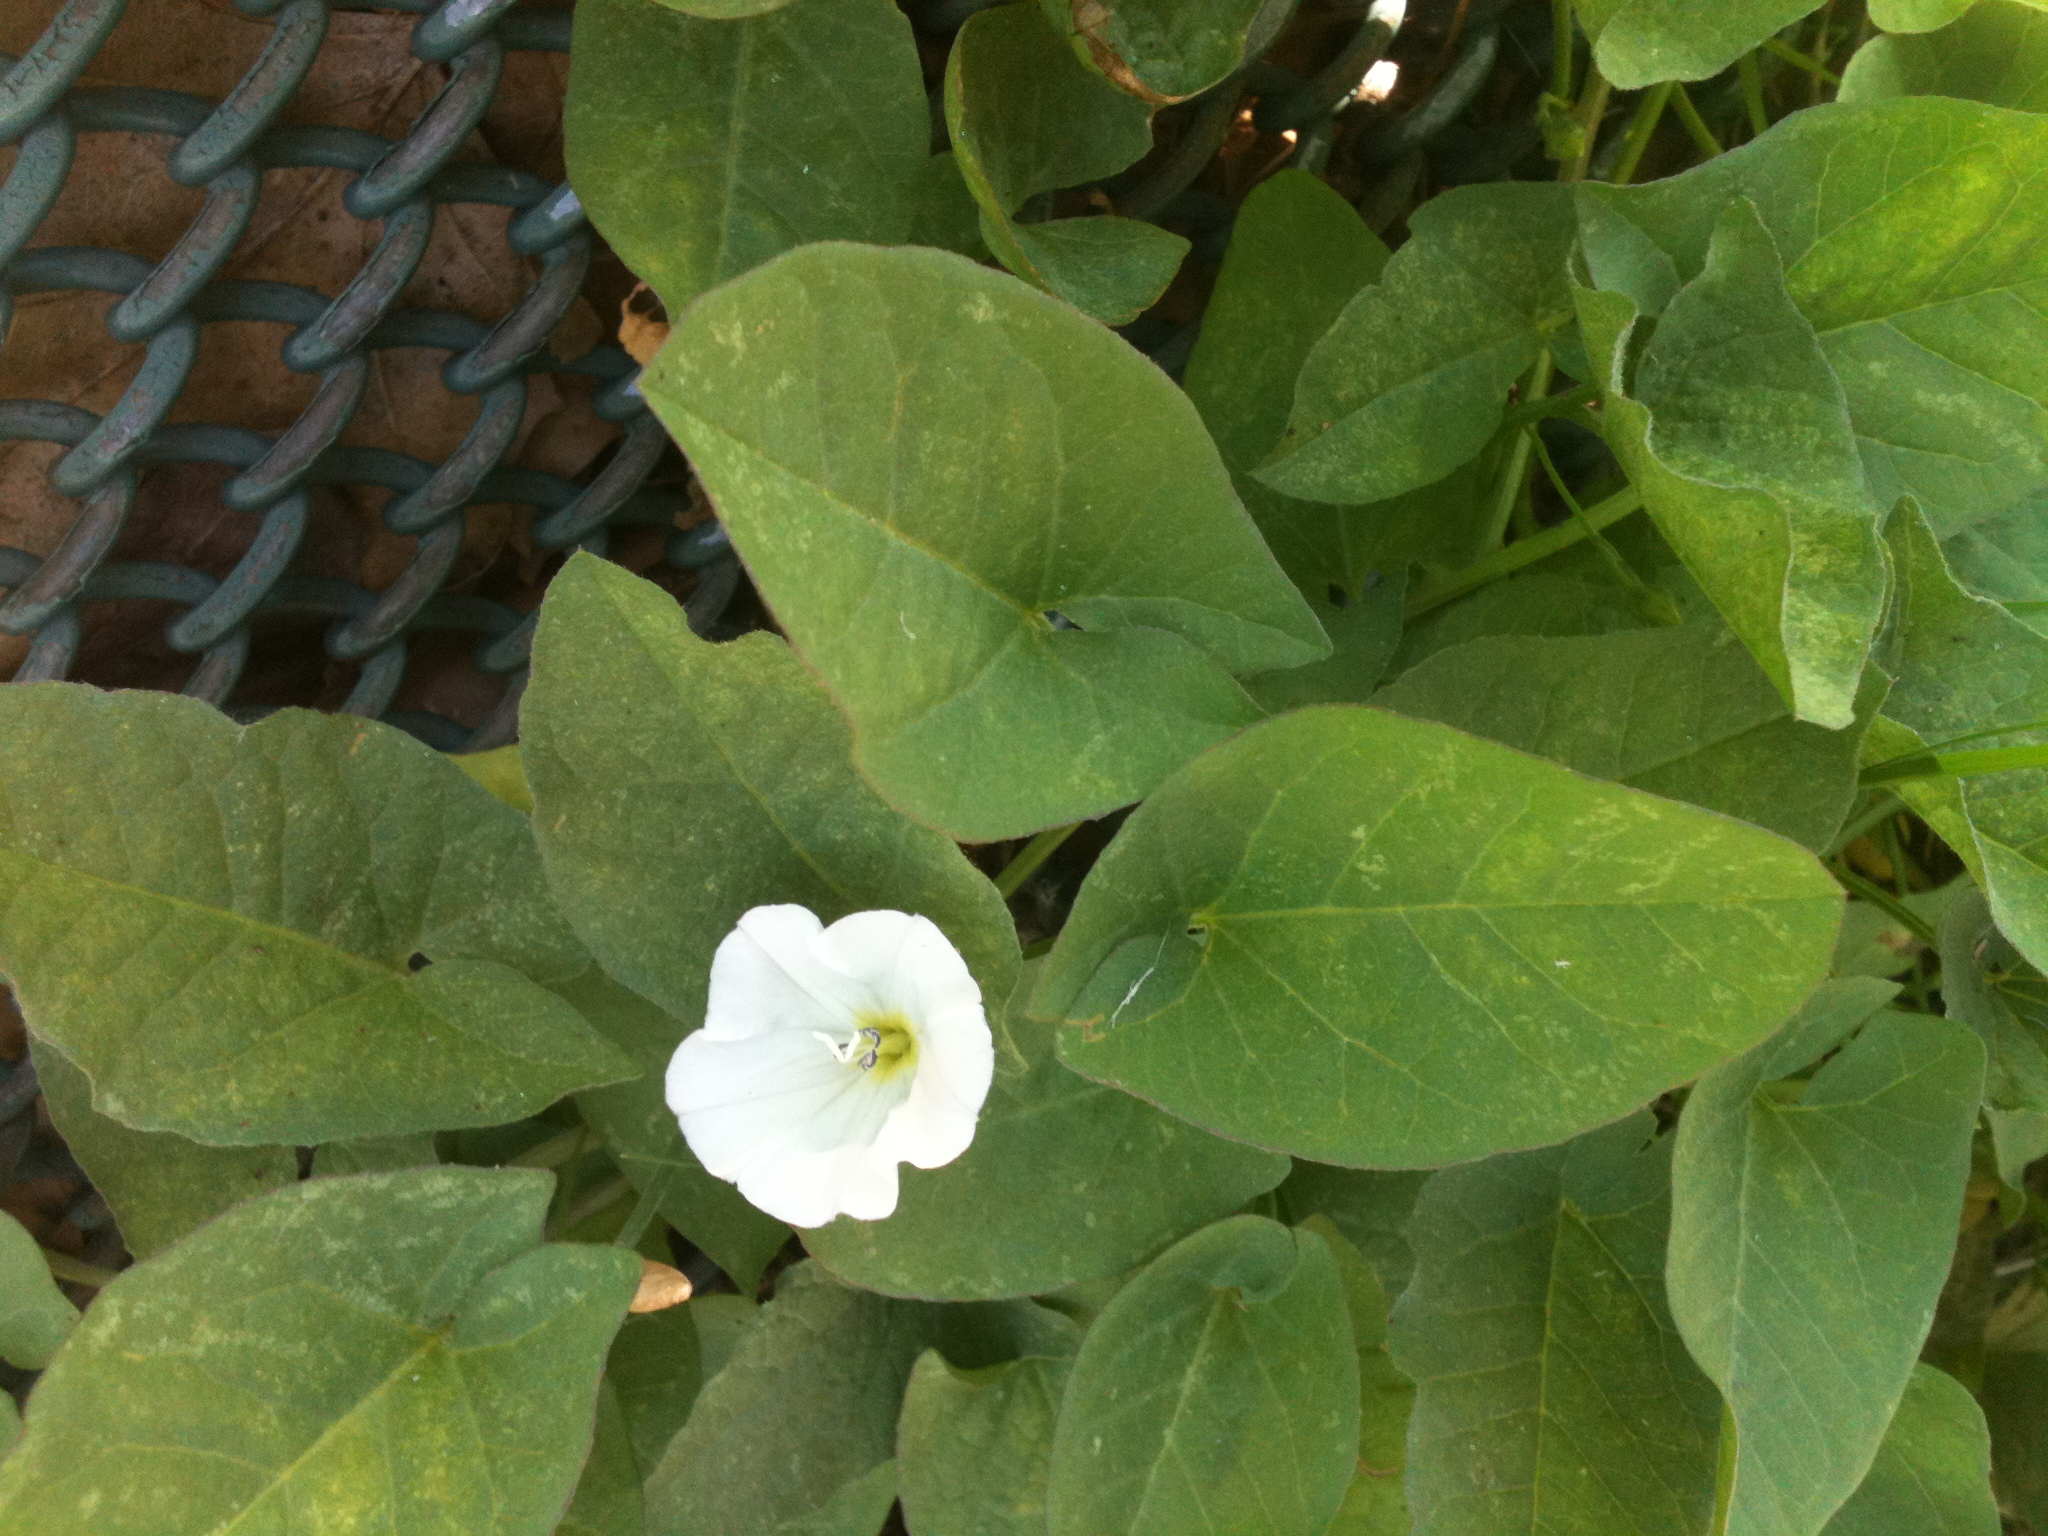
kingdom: Plantae
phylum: Tracheophyta
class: Magnoliopsida
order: Solanales
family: Convolvulaceae
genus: Convolvulus
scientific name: Convolvulus arvensis
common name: Field bindweed
